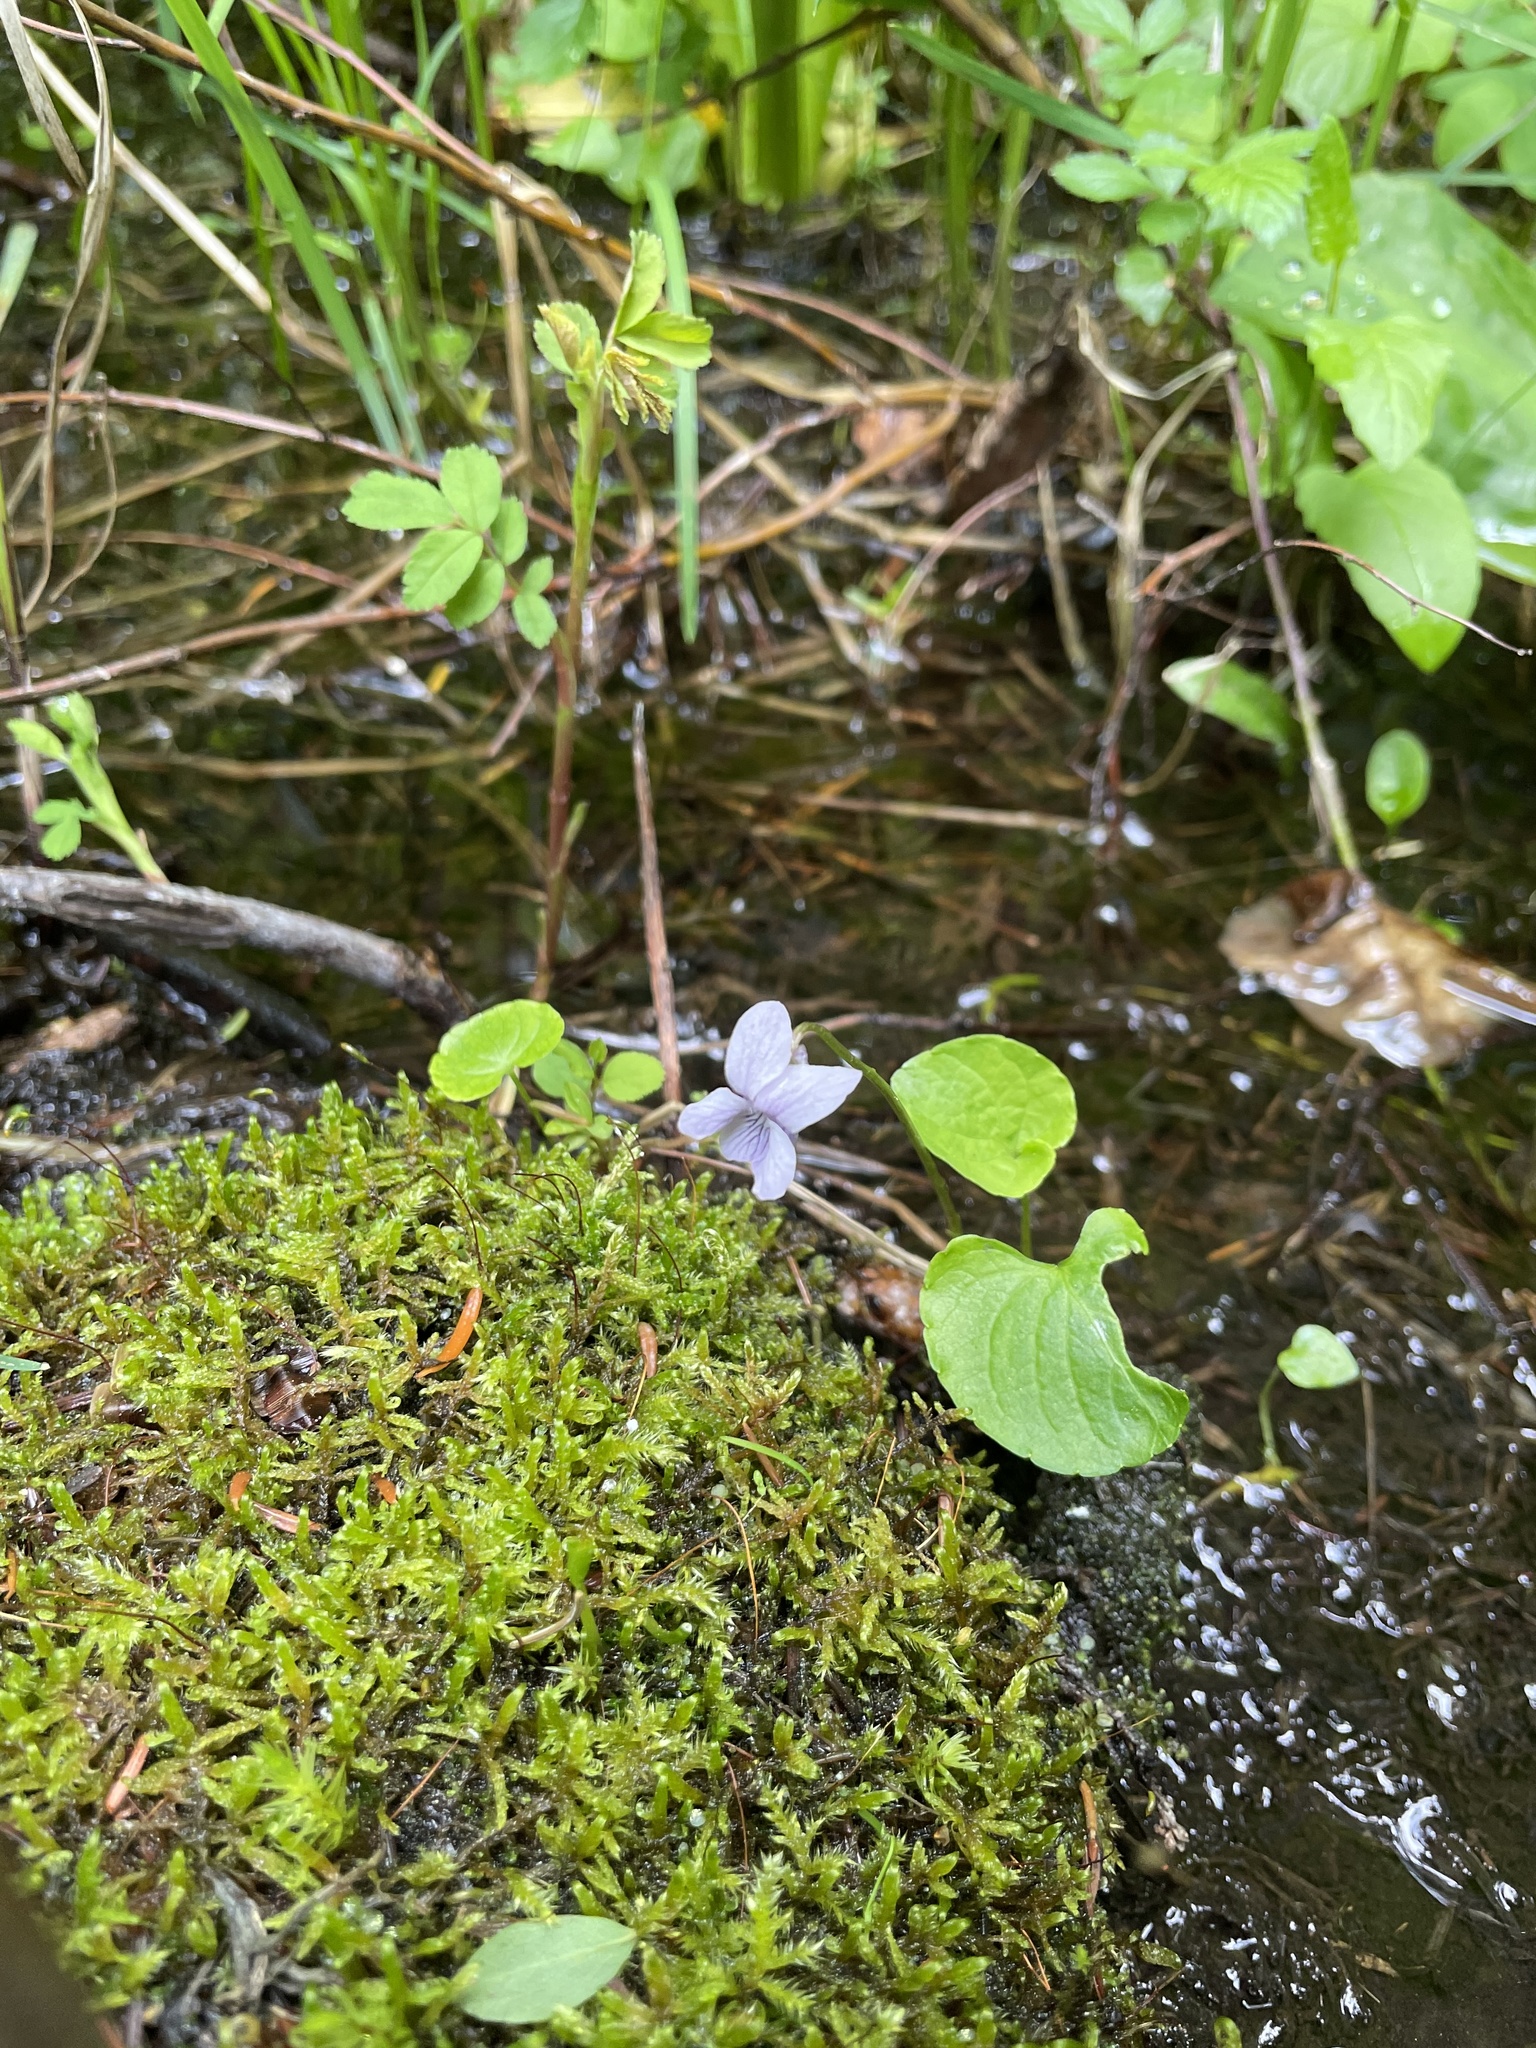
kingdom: Plantae
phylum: Tracheophyta
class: Magnoliopsida
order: Malpighiales
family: Violaceae
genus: Viola
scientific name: Viola palustris
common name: Marsh violet
